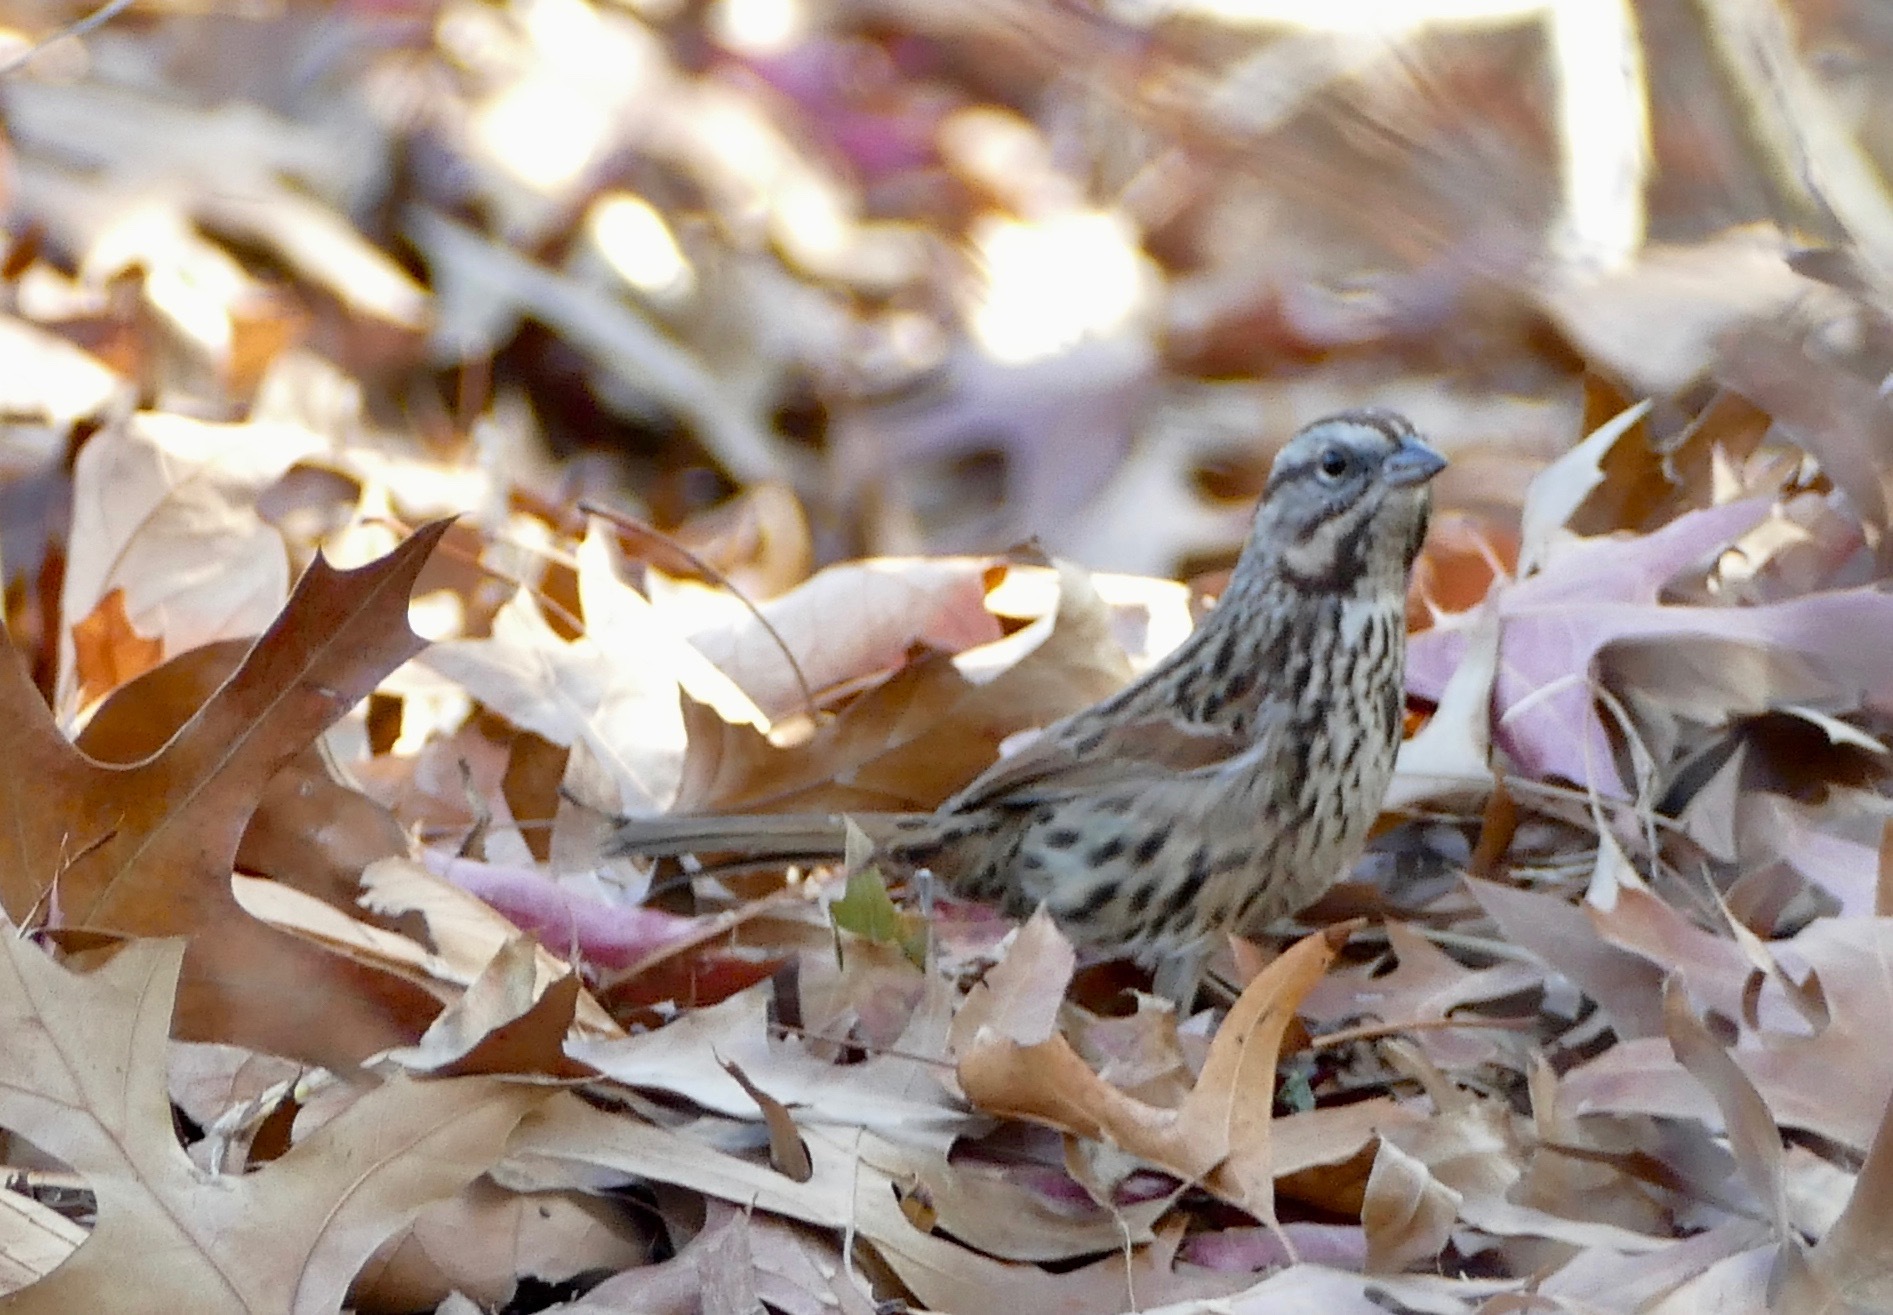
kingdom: Animalia
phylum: Chordata
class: Aves
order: Passeriformes
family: Passerellidae
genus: Melospiza
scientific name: Melospiza melodia
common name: Song sparrow
